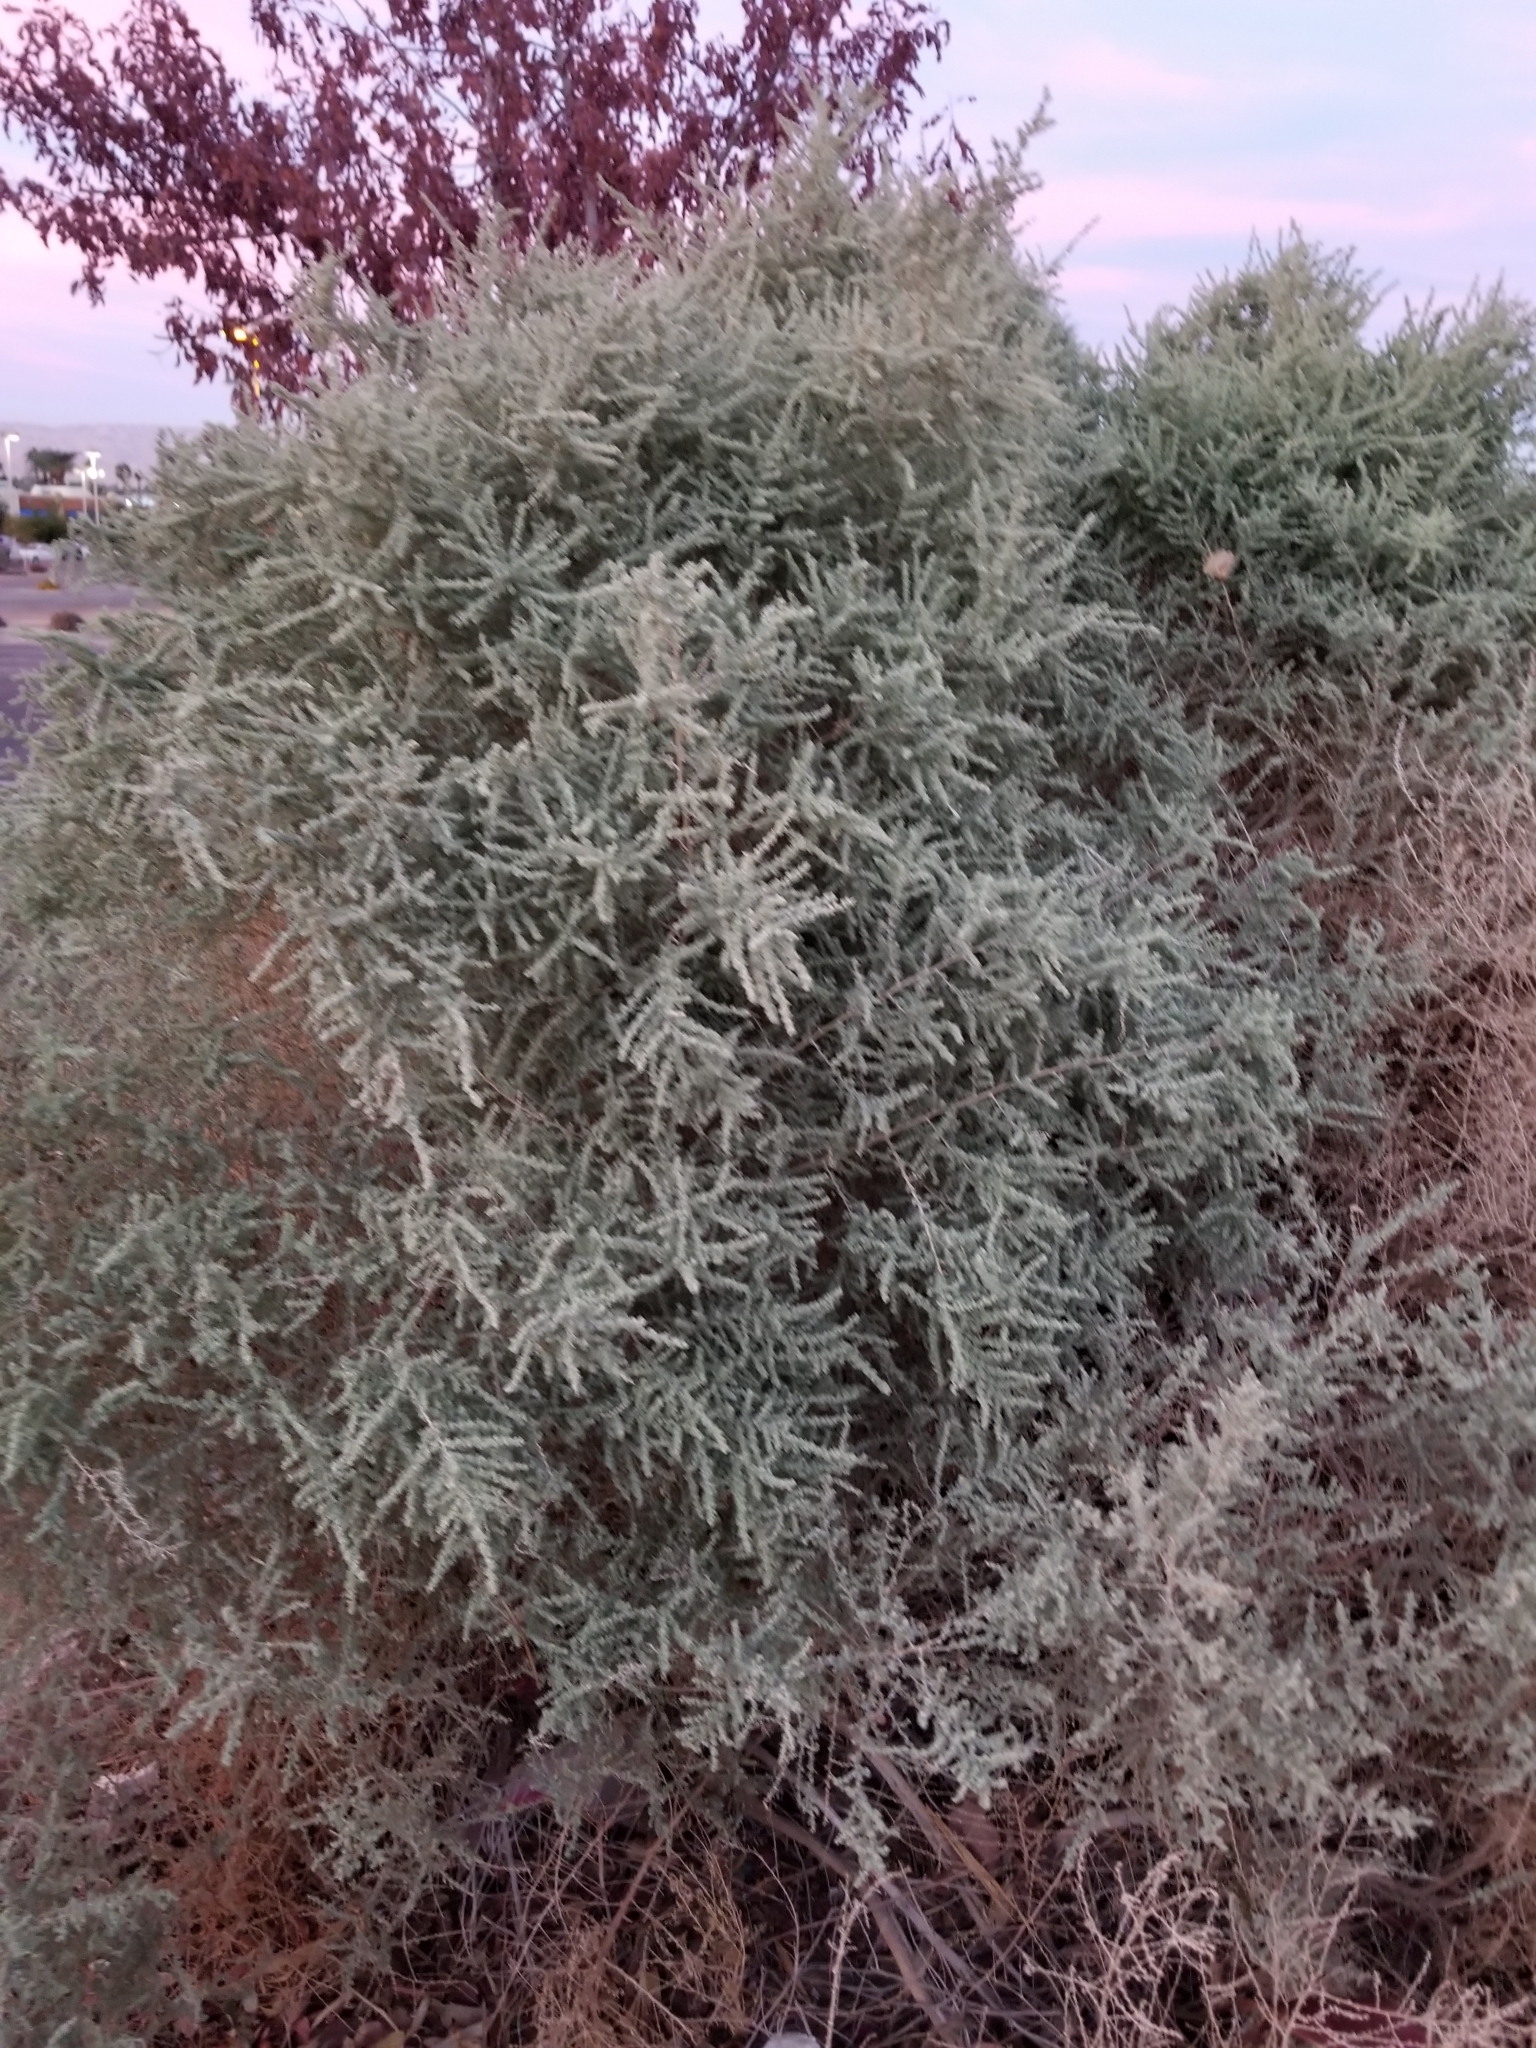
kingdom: Plantae
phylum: Tracheophyta
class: Magnoliopsida
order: Caryophyllales
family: Amaranthaceae
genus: Atriplex
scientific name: Atriplex polycarpa
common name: Desert saltbush
